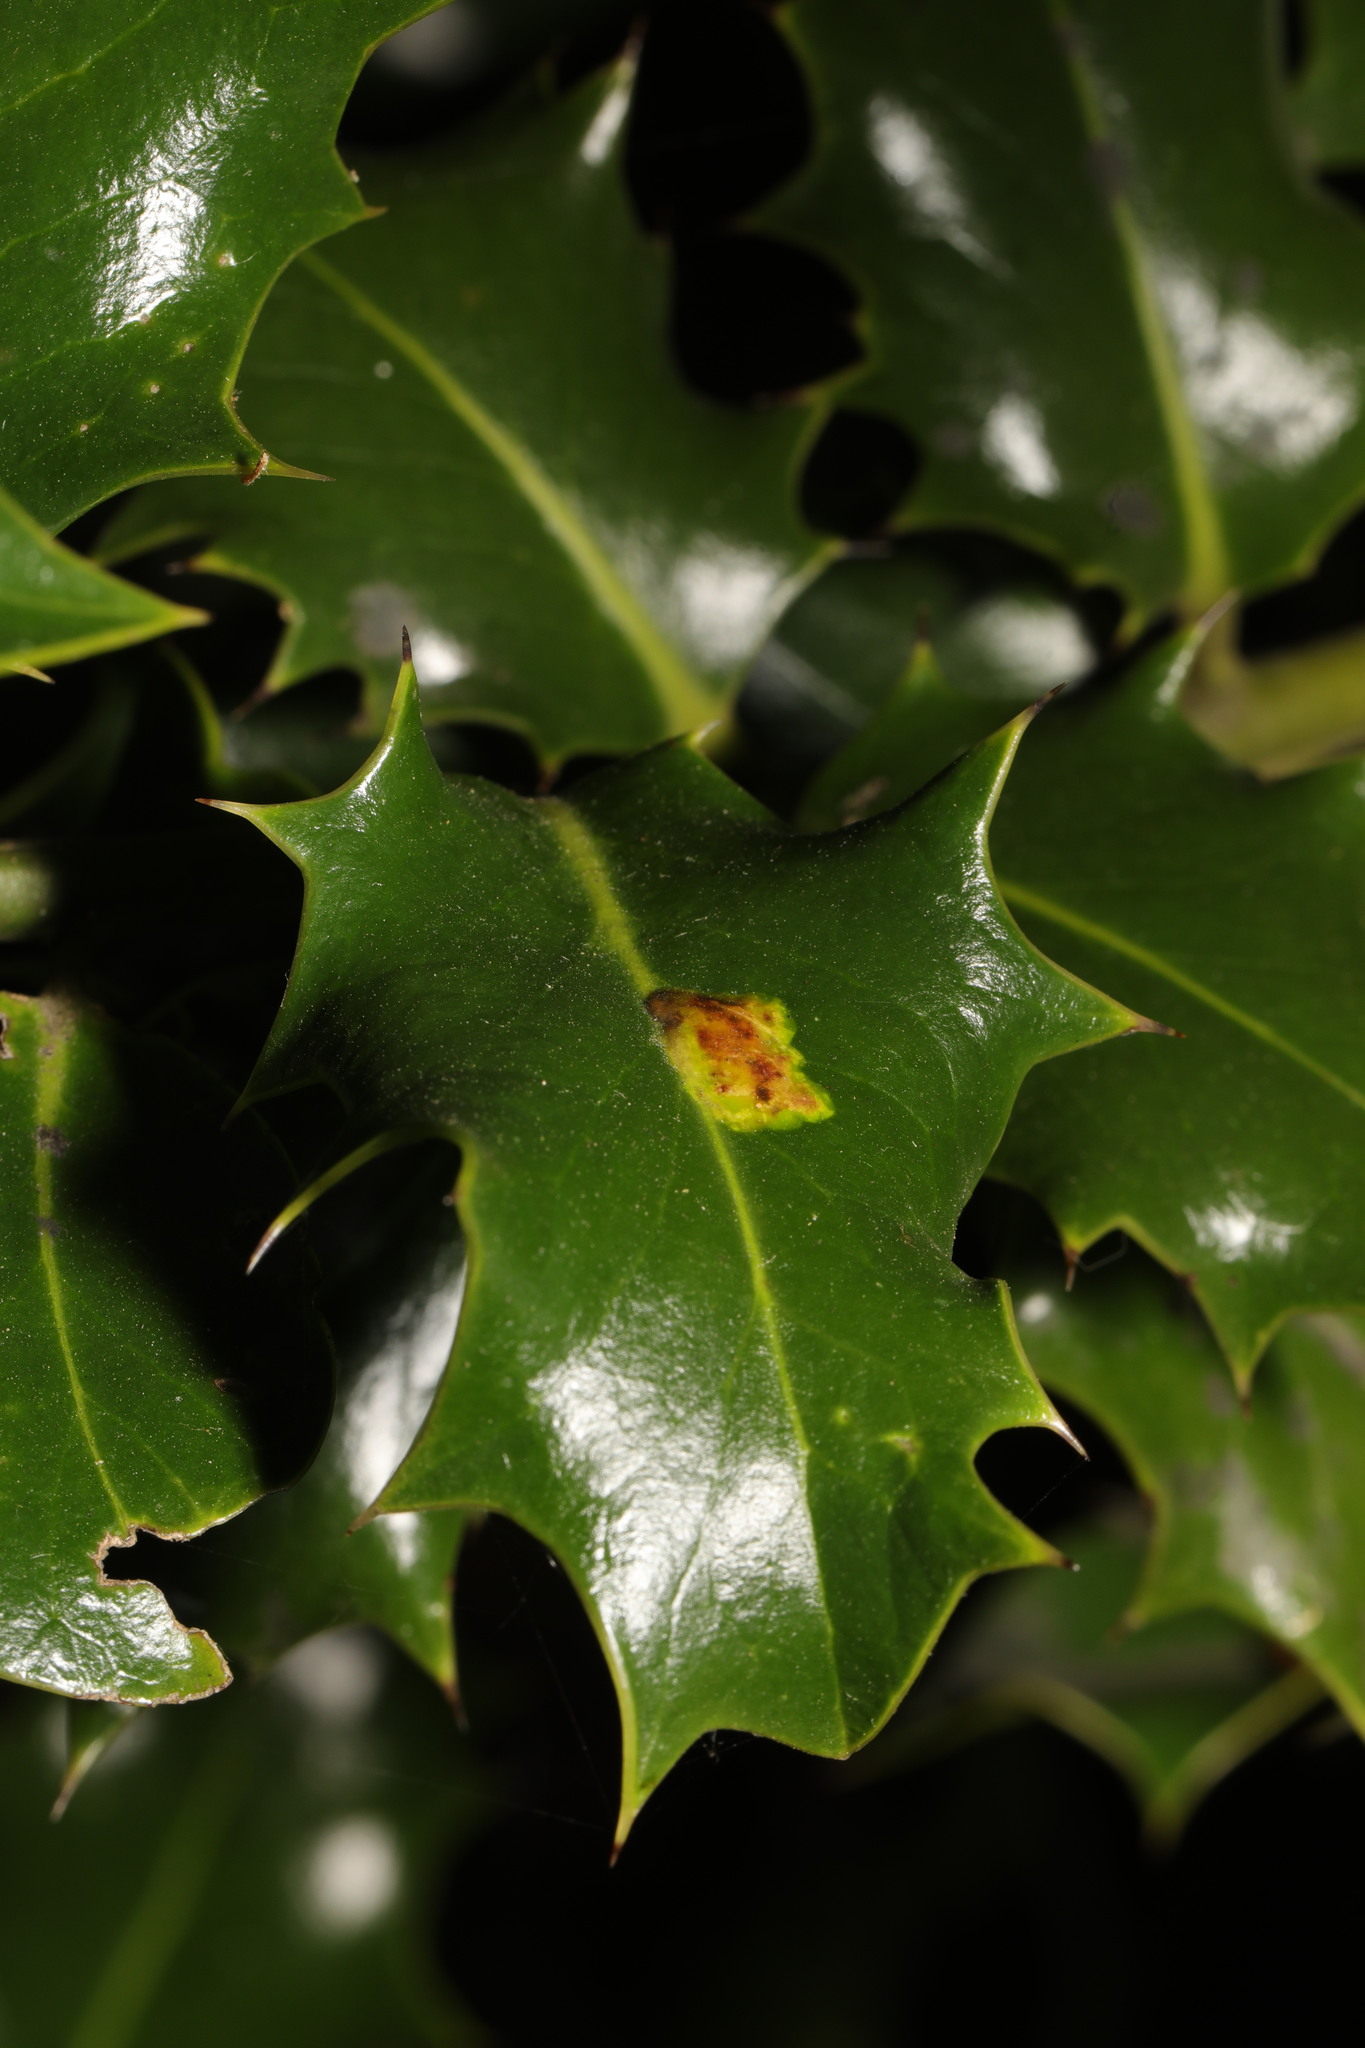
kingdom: Animalia
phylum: Arthropoda
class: Insecta
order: Diptera
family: Agromyzidae
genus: Phytomyza
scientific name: Phytomyza ilicis
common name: Holly leafminer
